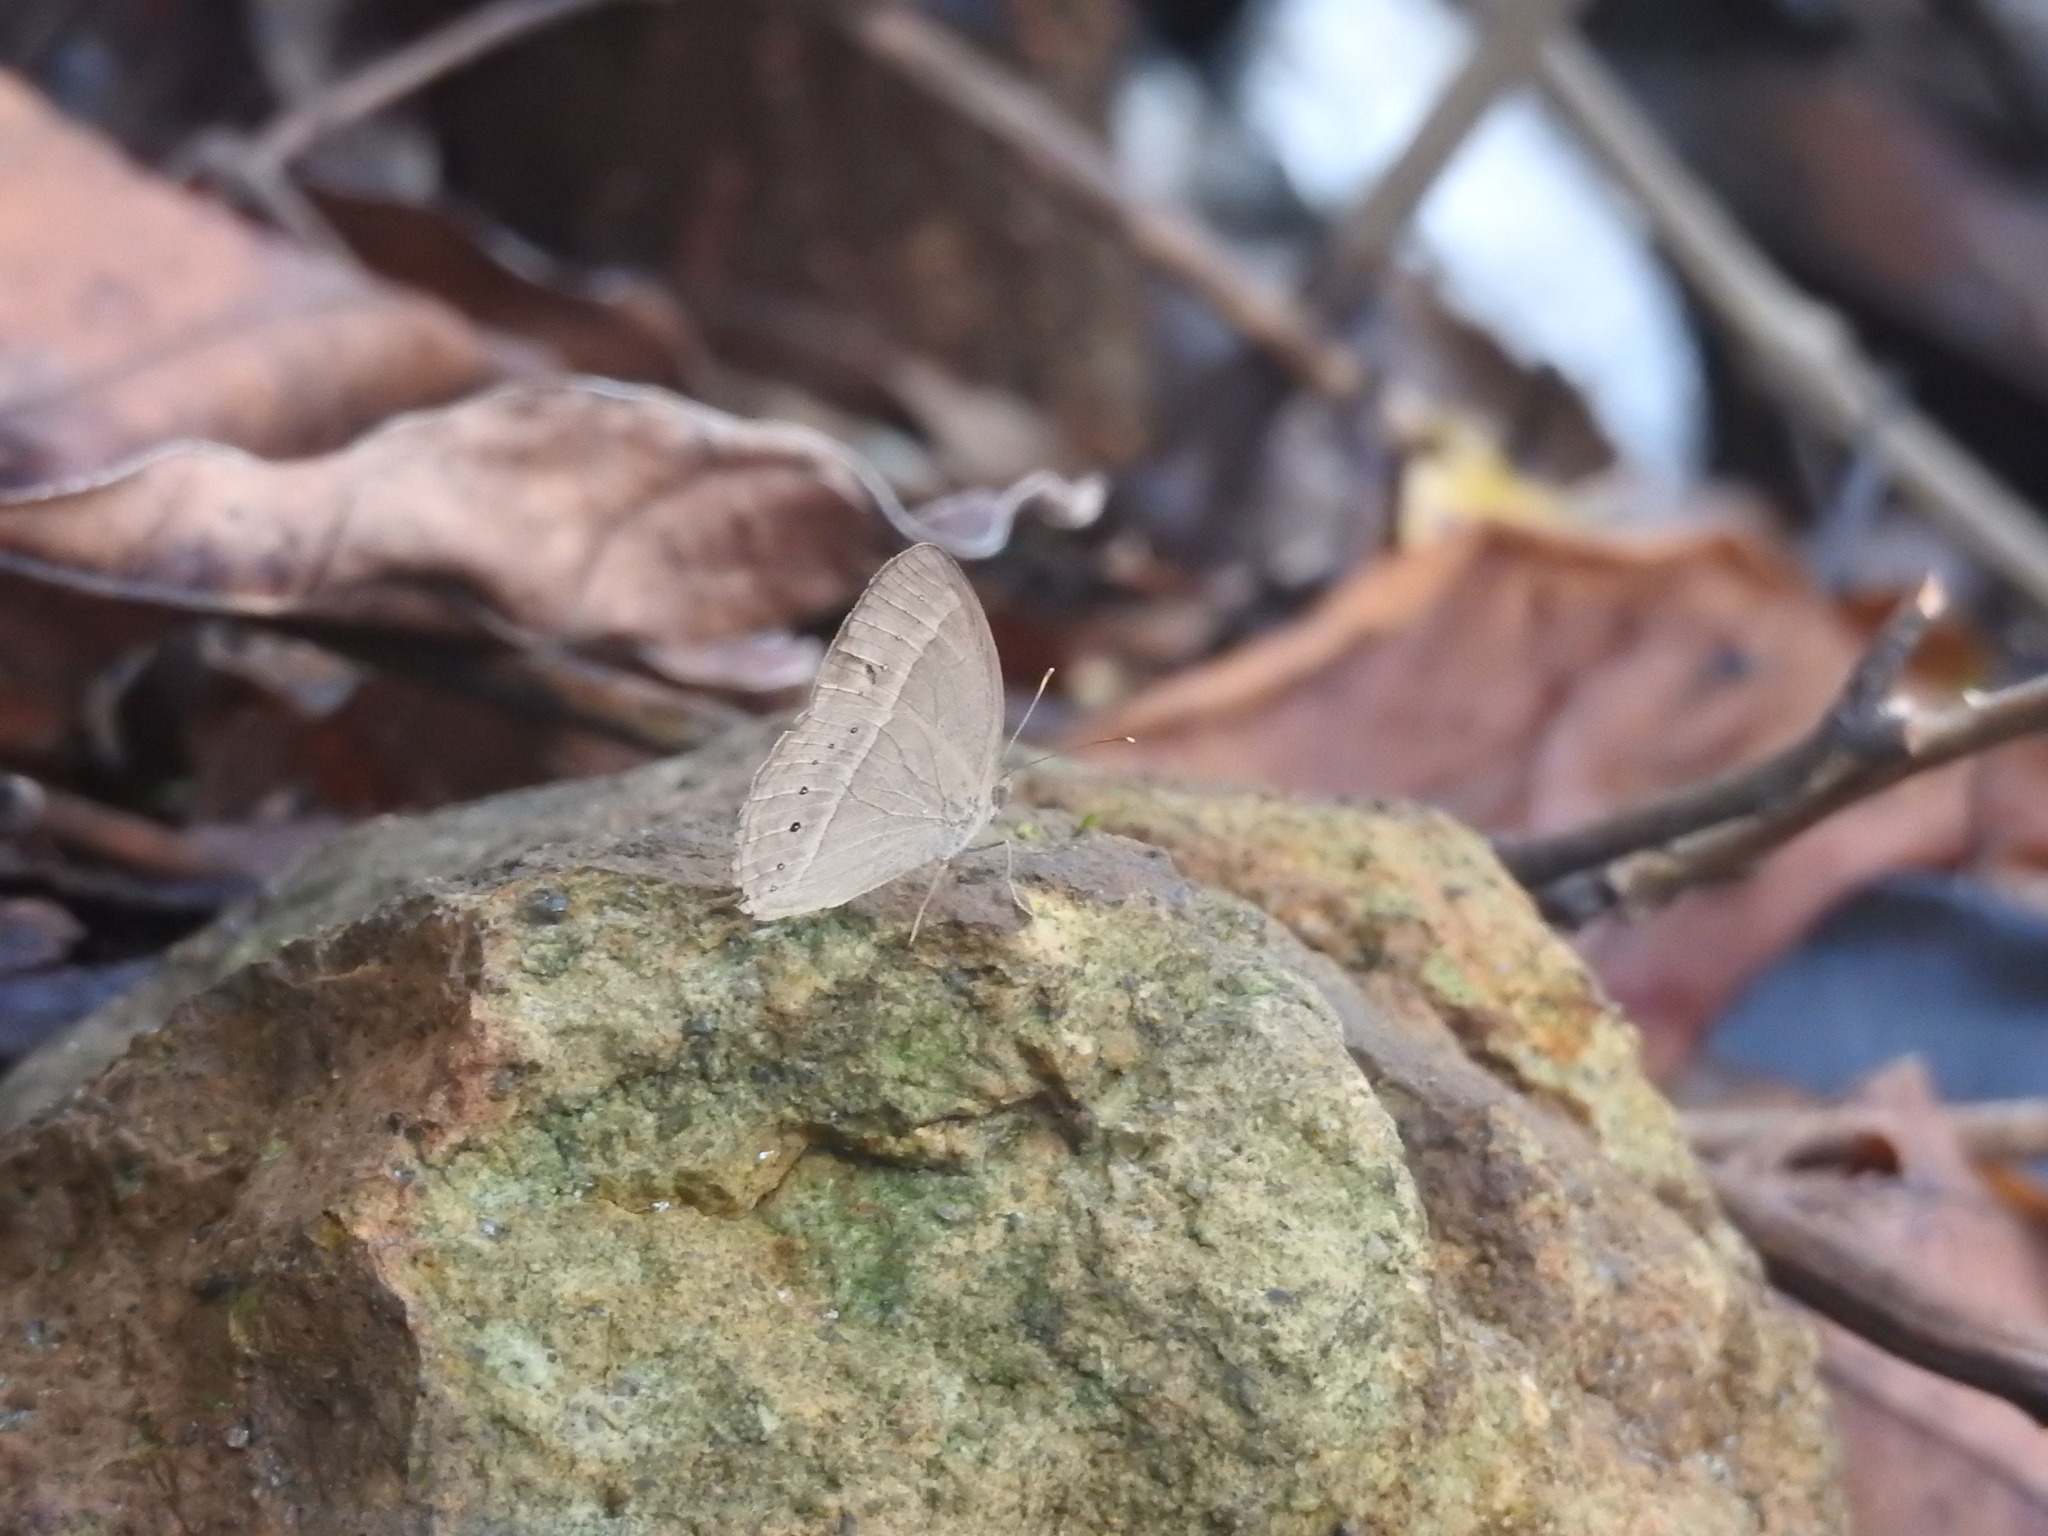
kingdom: Animalia
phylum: Arthropoda
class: Insecta
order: Lepidoptera
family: Nymphalidae
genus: Mycalesis
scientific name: Mycalesis mineus
